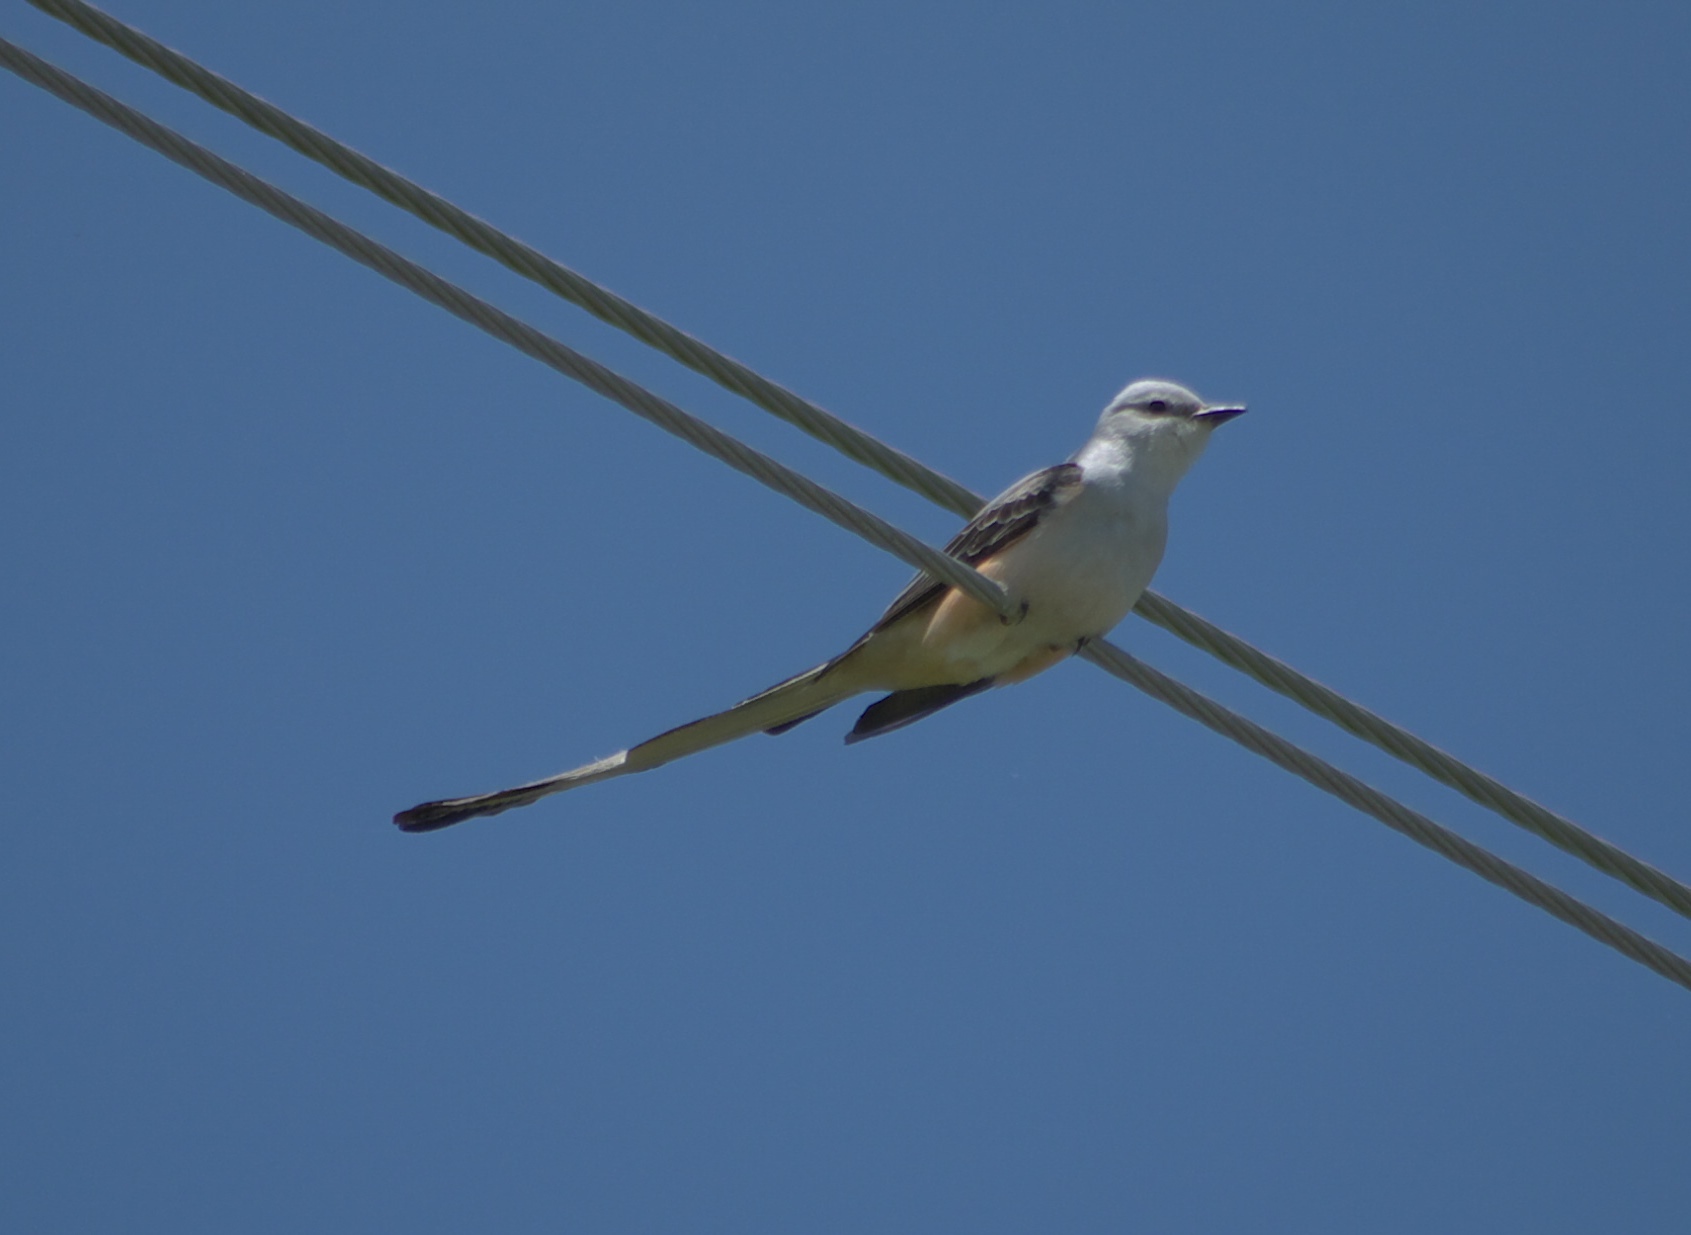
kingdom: Animalia
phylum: Chordata
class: Aves
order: Passeriformes
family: Tyrannidae
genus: Tyrannus
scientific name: Tyrannus forficatus
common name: Scissor-tailed flycatcher
